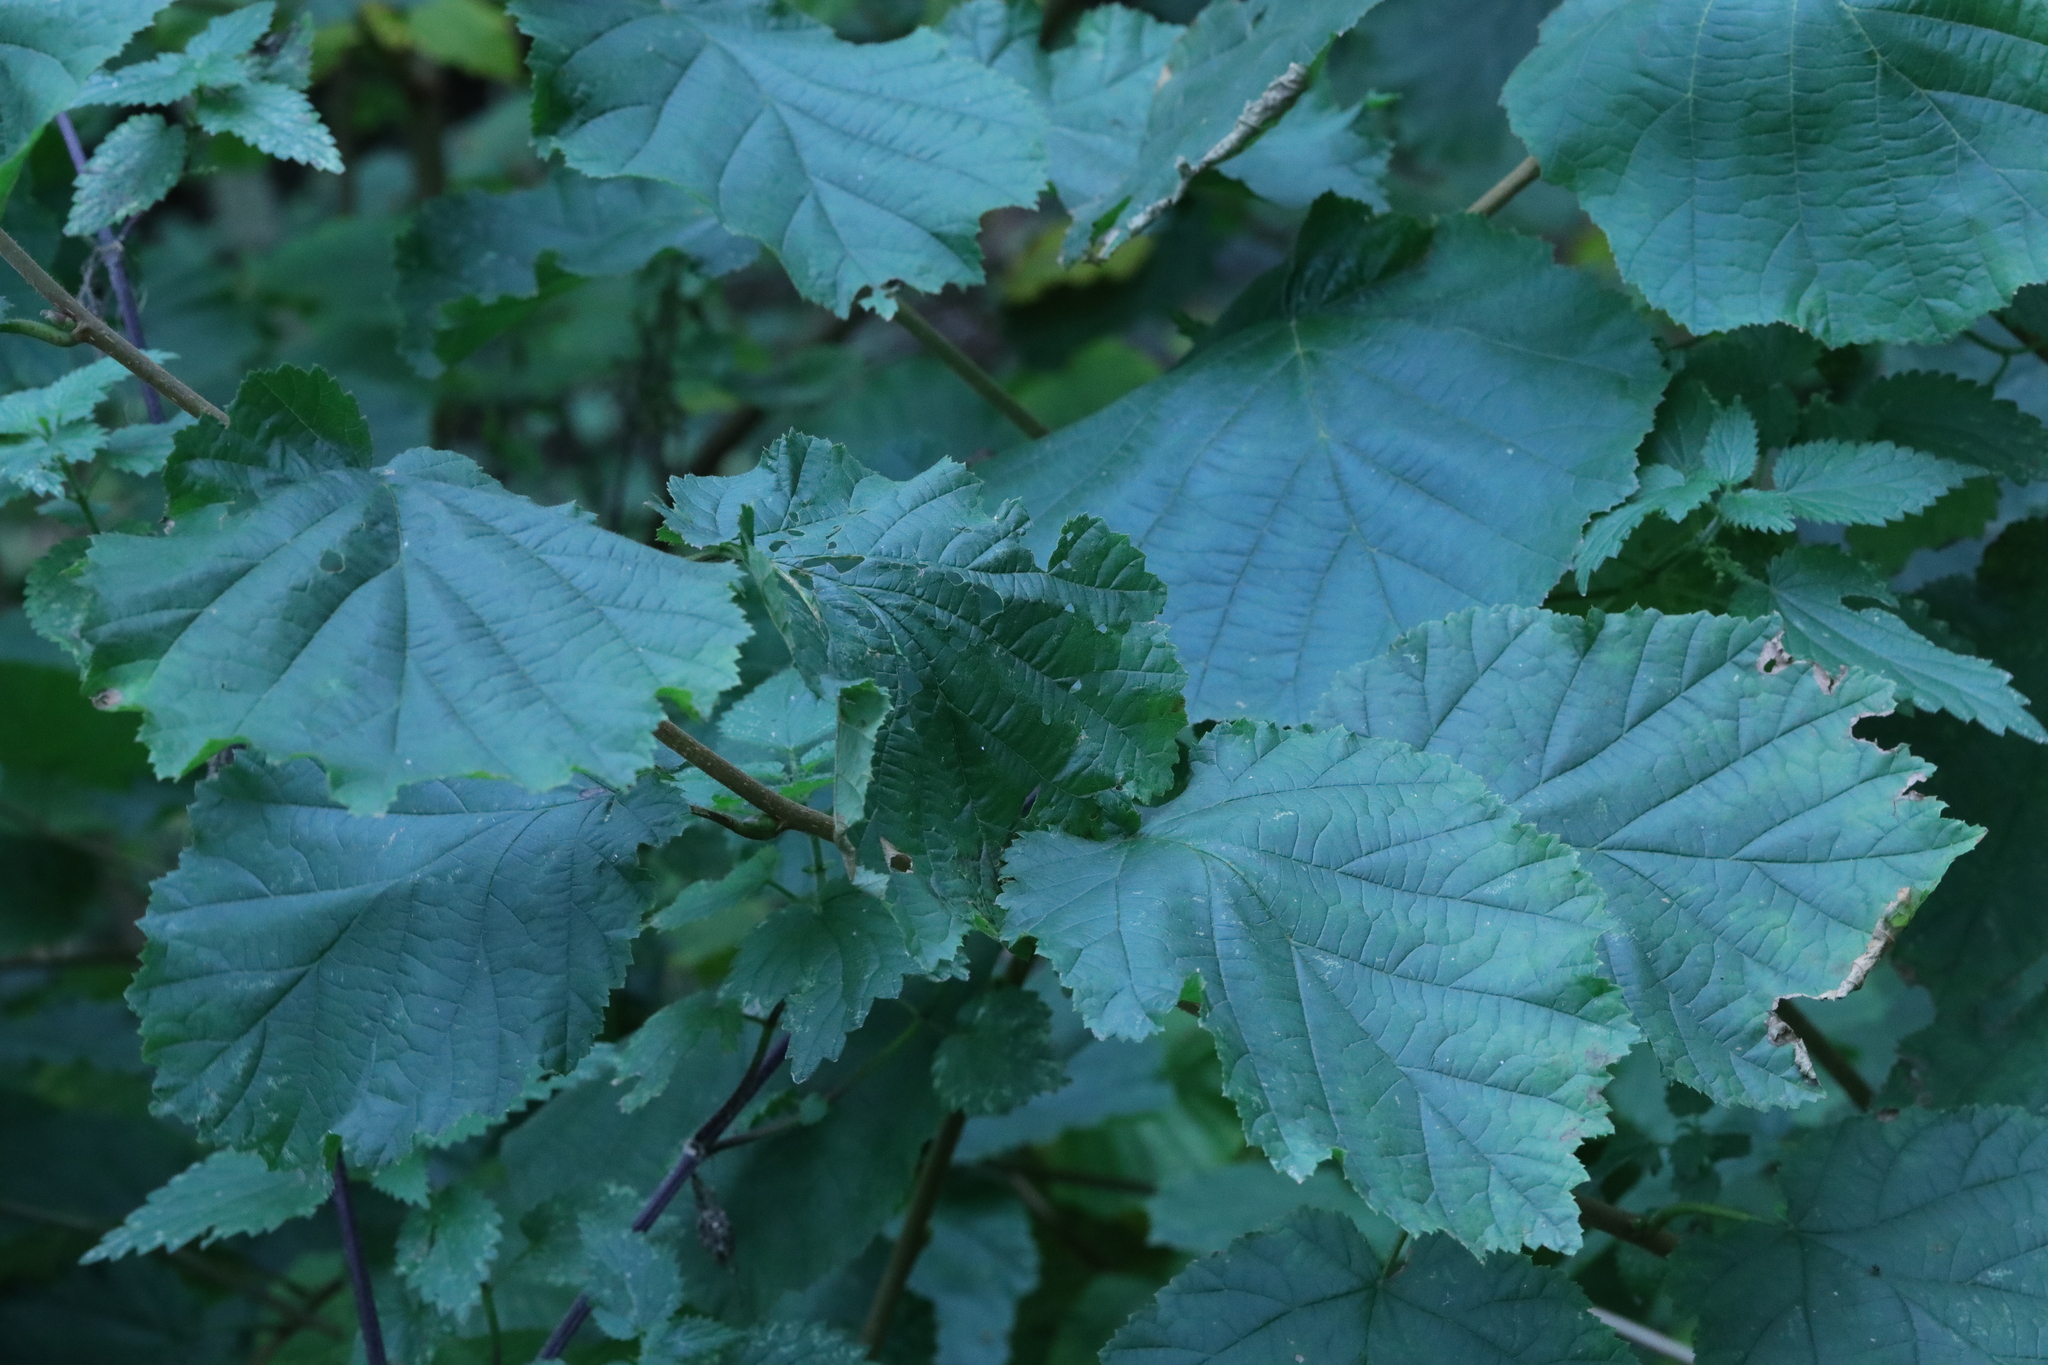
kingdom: Plantae
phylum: Tracheophyta
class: Magnoliopsida
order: Fagales
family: Betulaceae
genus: Corylus
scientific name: Corylus avellana
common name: European hazel
